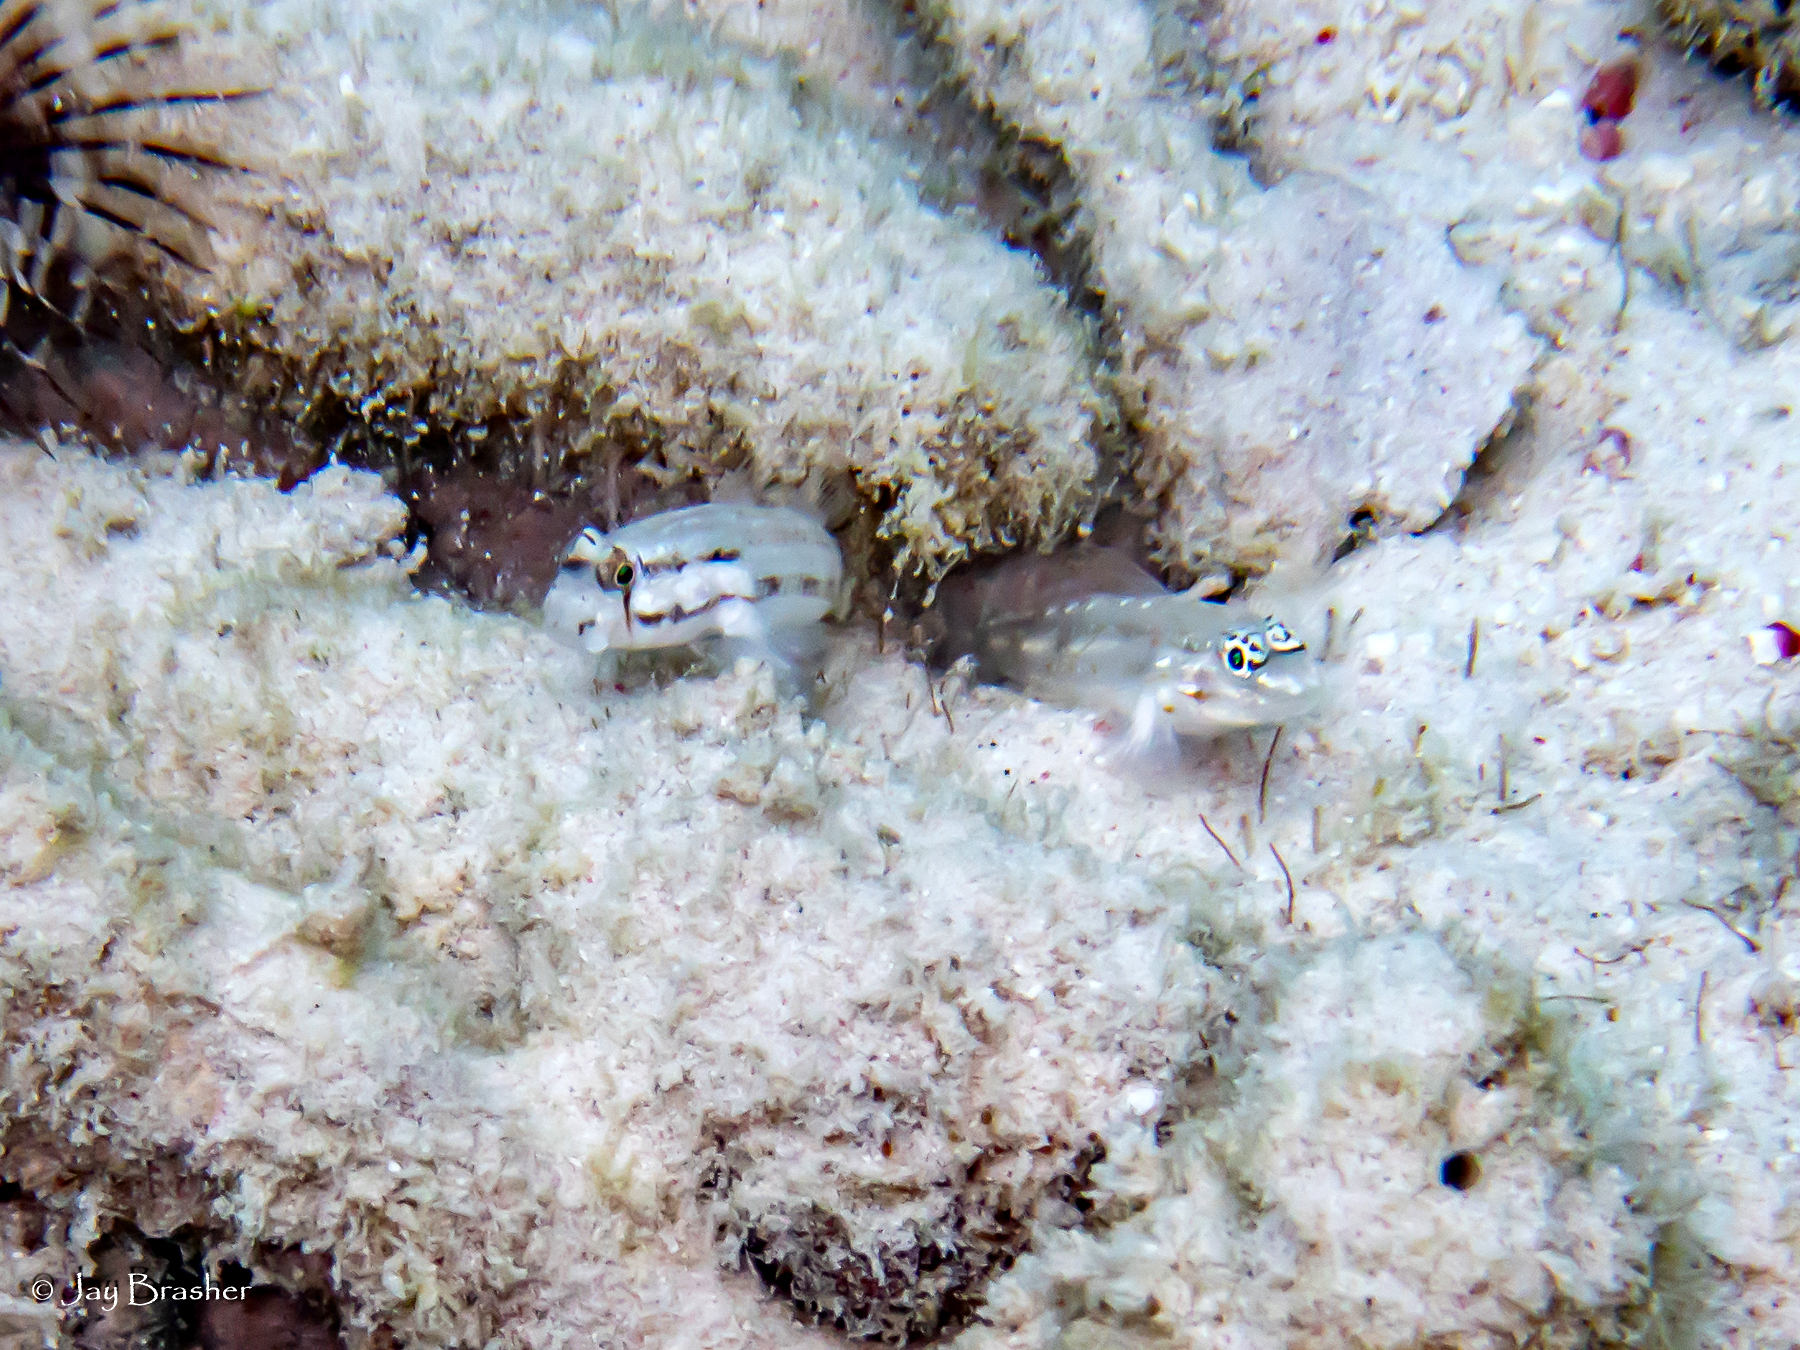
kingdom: Animalia
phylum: Chordata
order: Perciformes
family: Gobiidae
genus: Gnatholepis
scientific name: Gnatholepis thompsoni
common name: Goldspot goby
